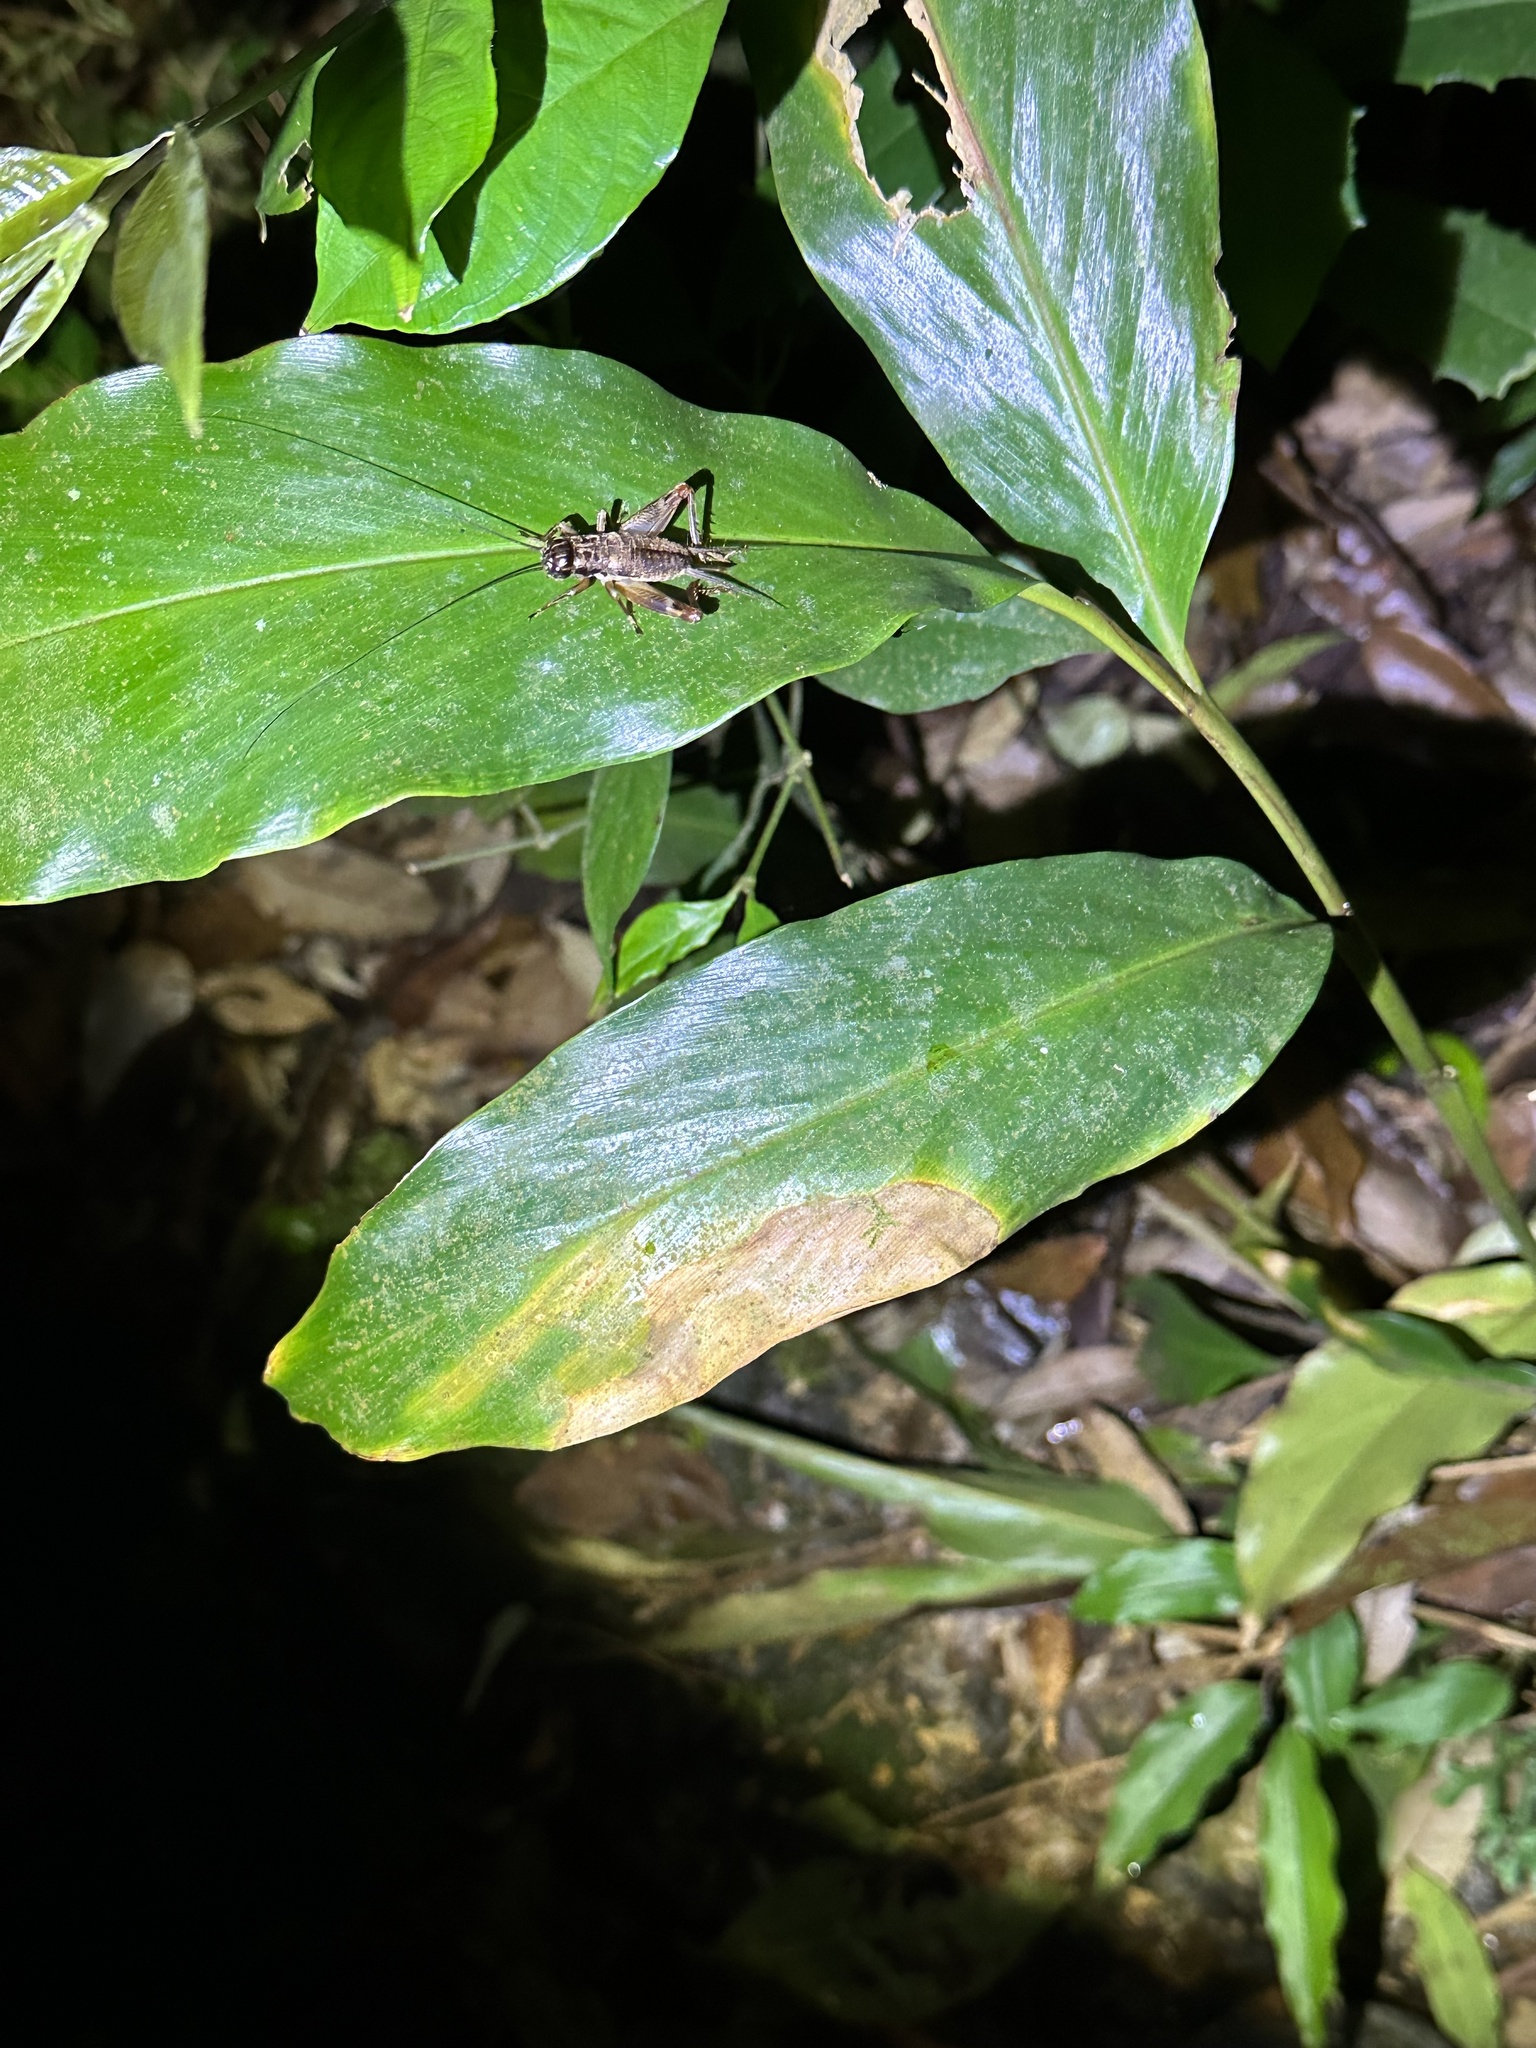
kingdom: Animalia
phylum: Arthropoda
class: Insecta
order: Orthoptera
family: Gryllidae
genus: Duolandrevus
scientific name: Duolandrevus coulonianus
